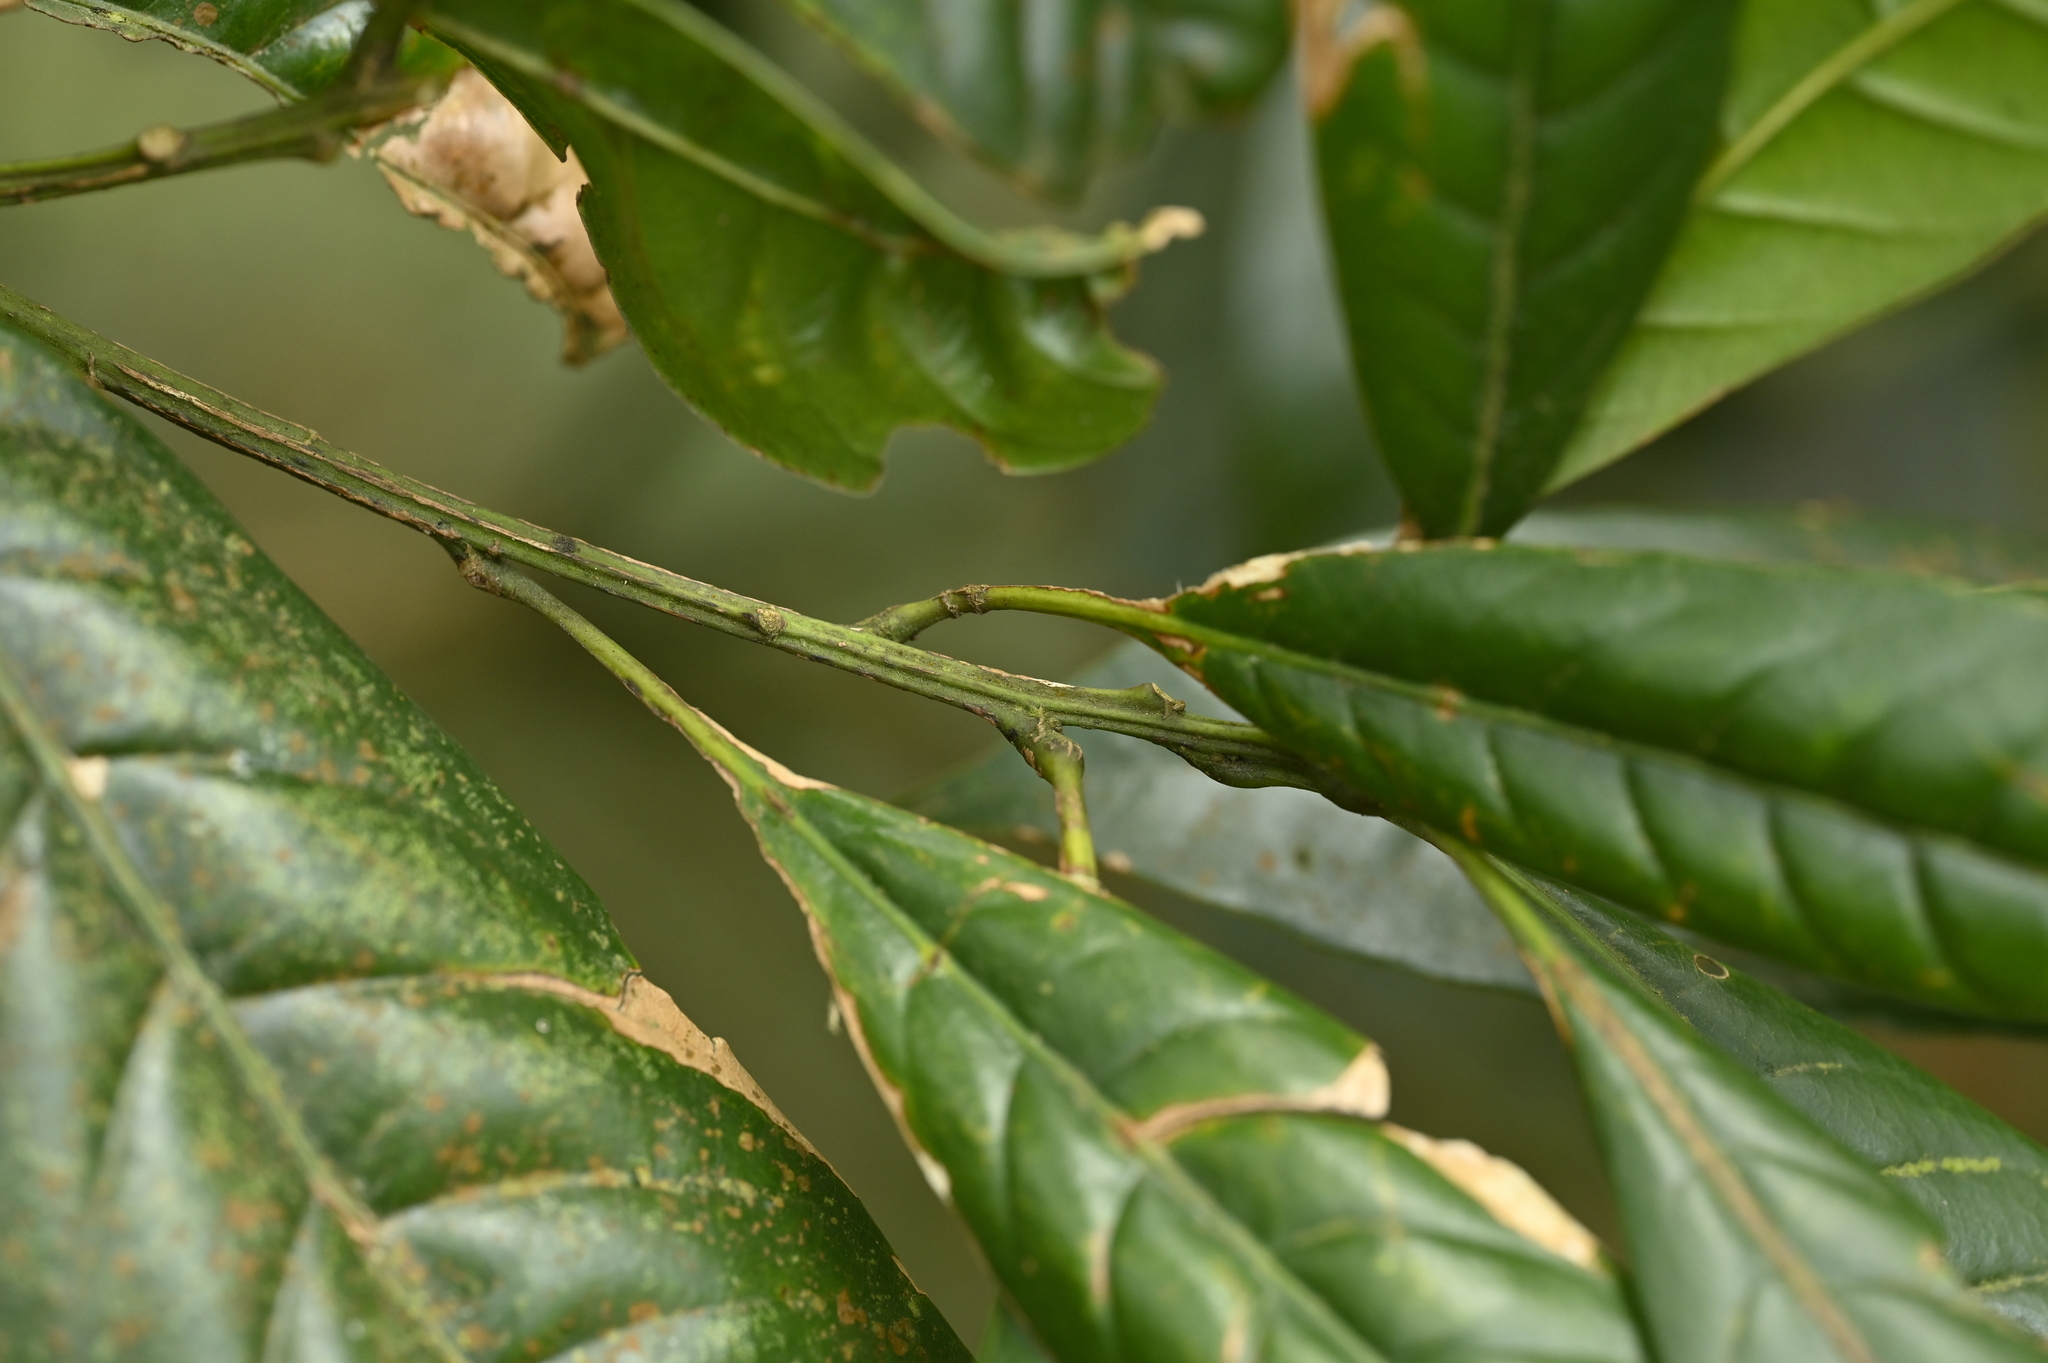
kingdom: Plantae
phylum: Tracheophyta
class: Magnoliopsida
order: Fagales
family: Fagaceae
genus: Lithocarpus
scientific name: Lithocarpus brevicaudatus
